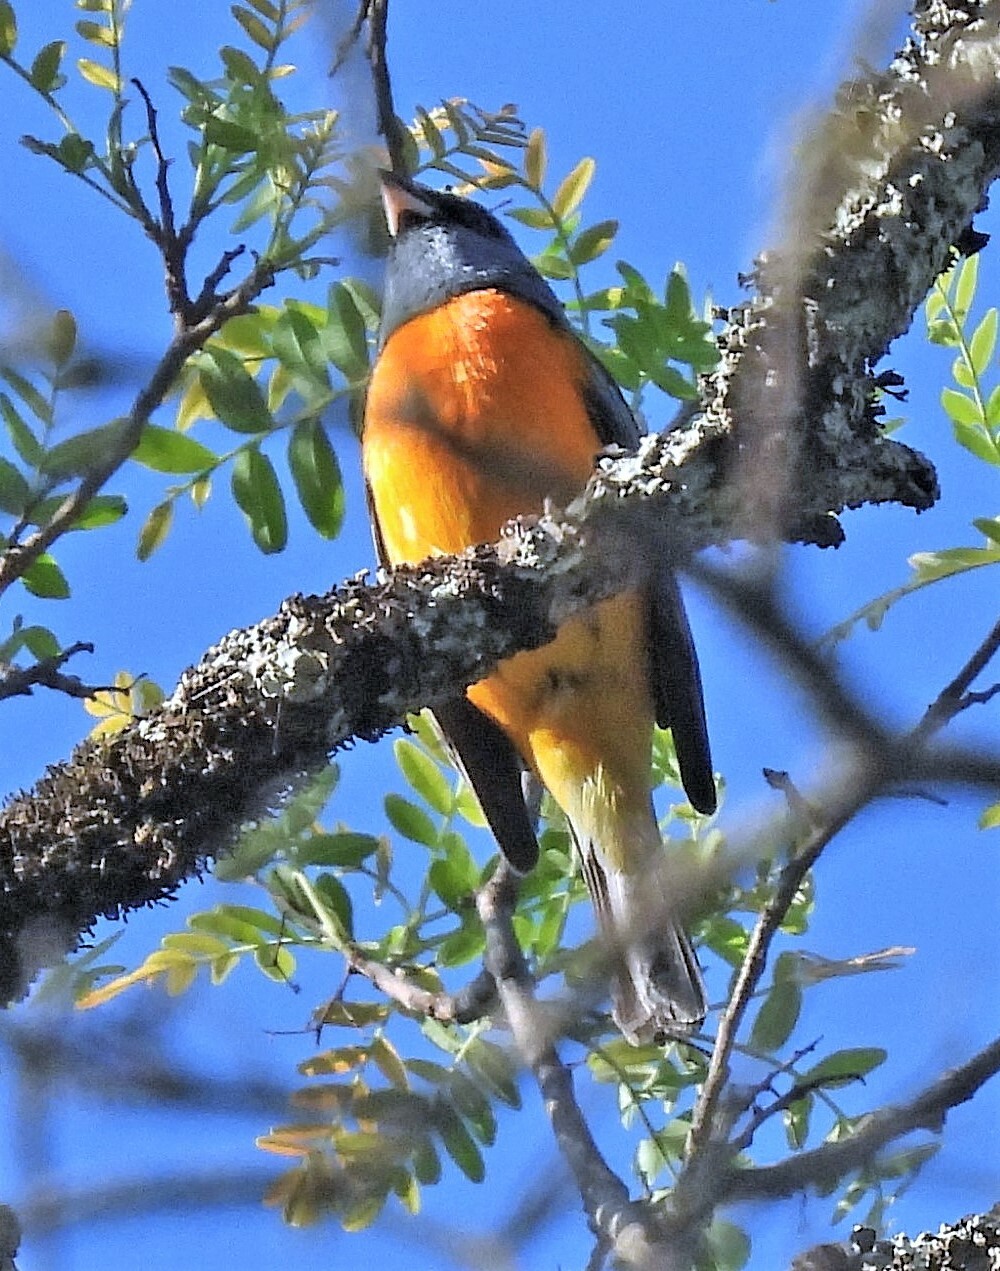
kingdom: Animalia
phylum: Chordata
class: Aves
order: Passeriformes
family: Thraupidae
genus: Rauenia
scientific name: Rauenia bonariensis
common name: Blue-and-yellow tanager
